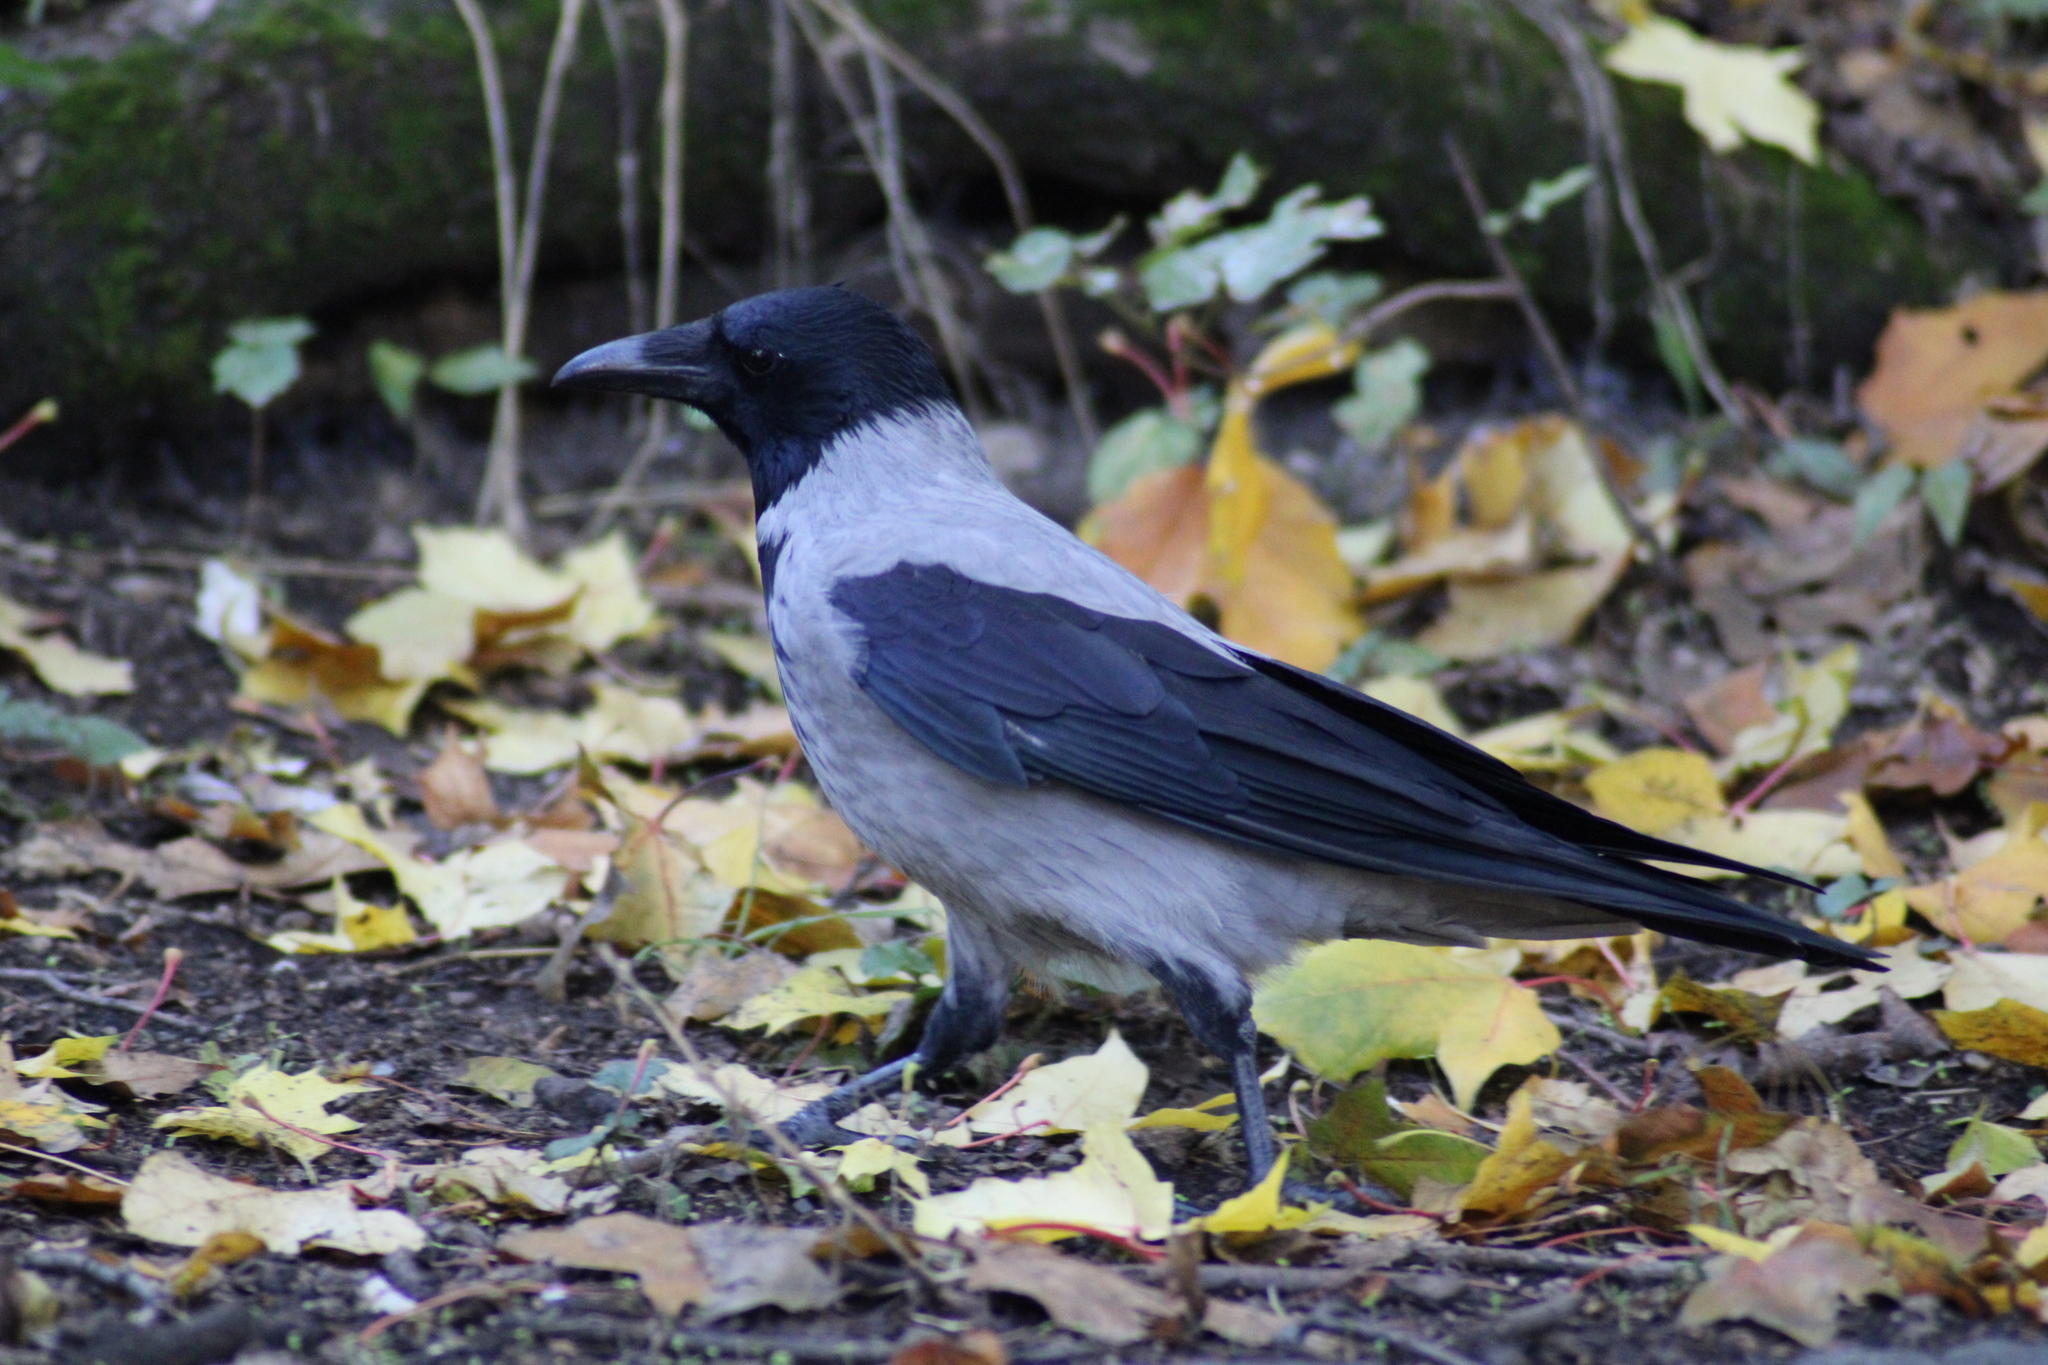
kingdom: Animalia
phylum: Chordata
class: Aves
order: Passeriformes
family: Corvidae
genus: Corvus
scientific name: Corvus cornix
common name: Hooded crow
